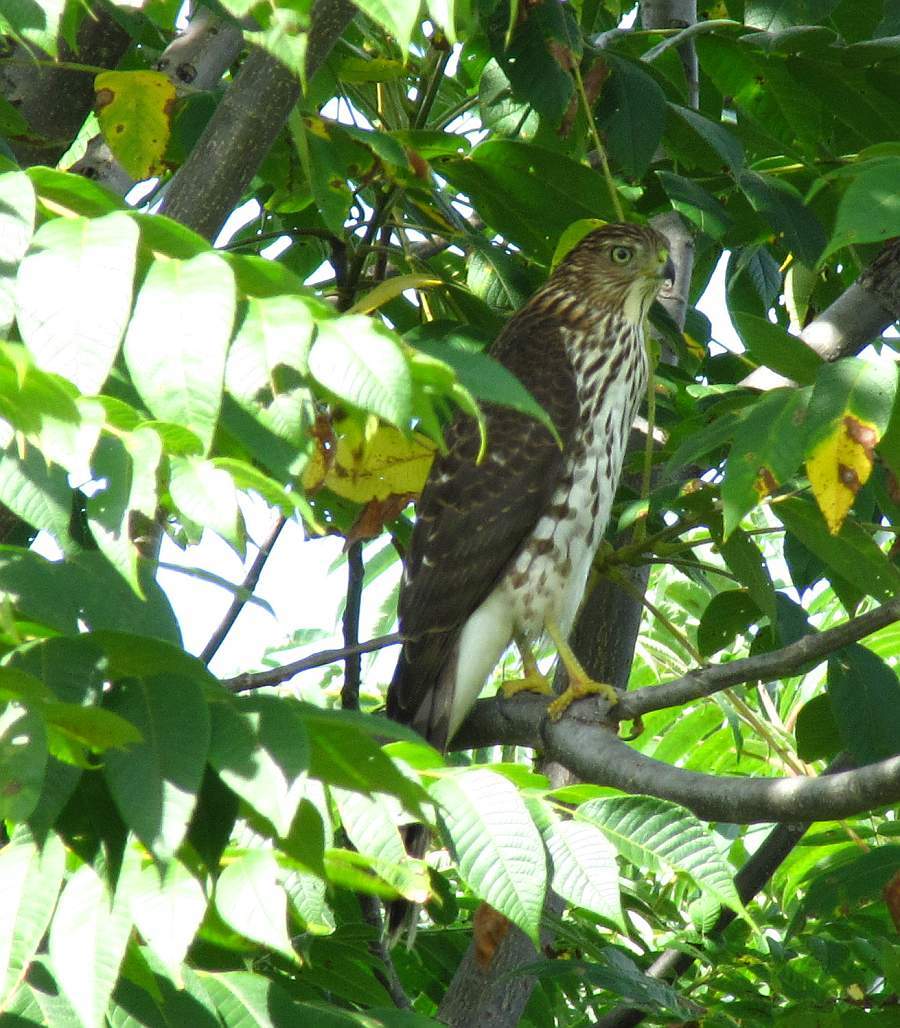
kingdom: Animalia
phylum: Chordata
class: Aves
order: Accipitriformes
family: Accipitridae
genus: Accipiter
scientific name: Accipiter cooperii
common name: Cooper's hawk
